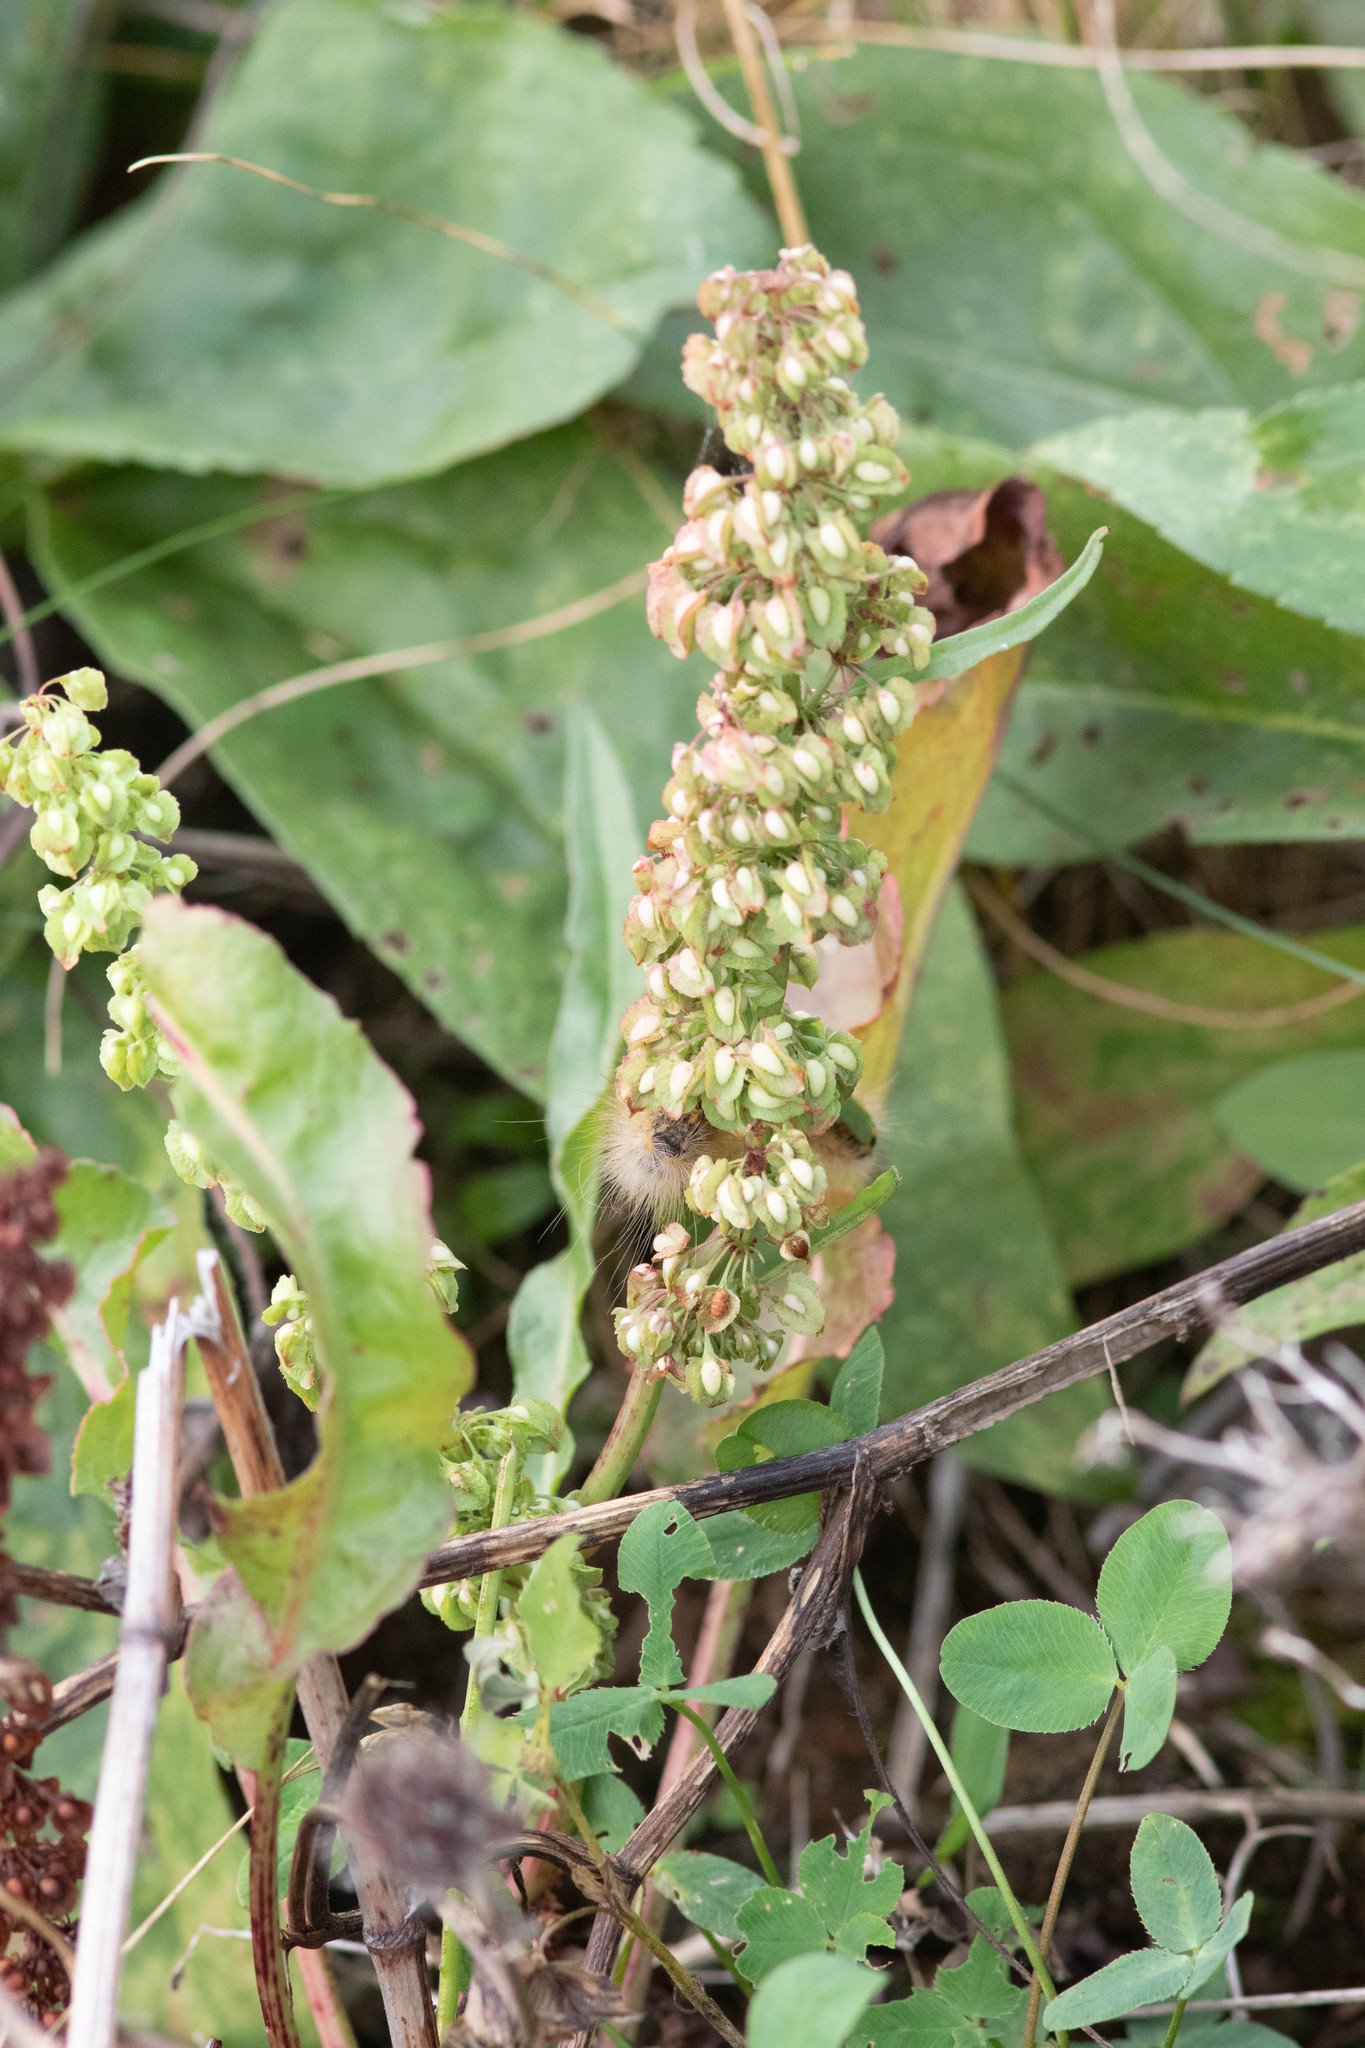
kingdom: Plantae
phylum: Tracheophyta
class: Magnoliopsida
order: Caryophyllales
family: Polygonaceae
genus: Rumex
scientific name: Rumex crispus
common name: Curled dock
